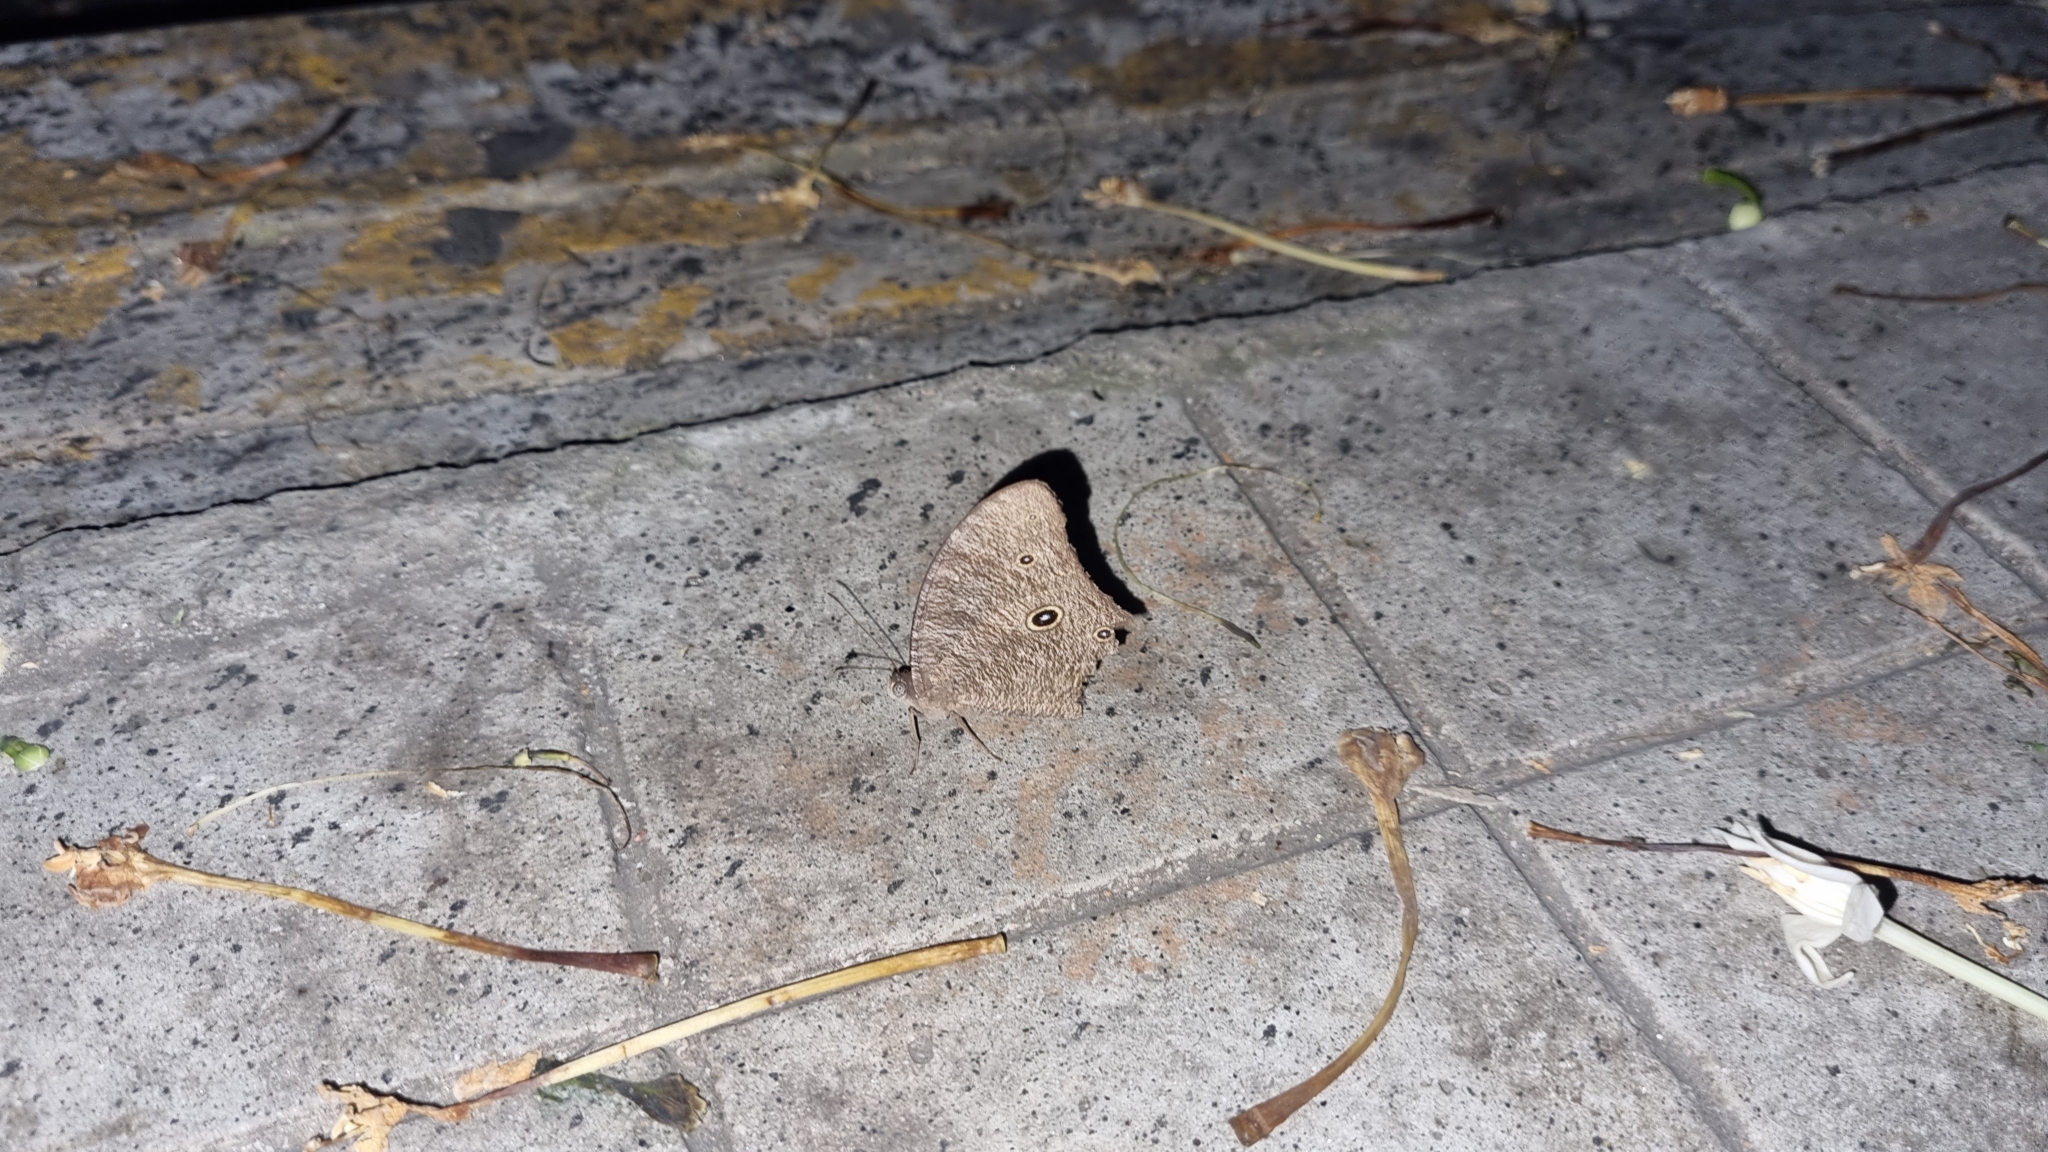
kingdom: Animalia
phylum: Arthropoda
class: Insecta
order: Lepidoptera
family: Nymphalidae
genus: Melanitis
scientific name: Melanitis leda
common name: Twilight brown
